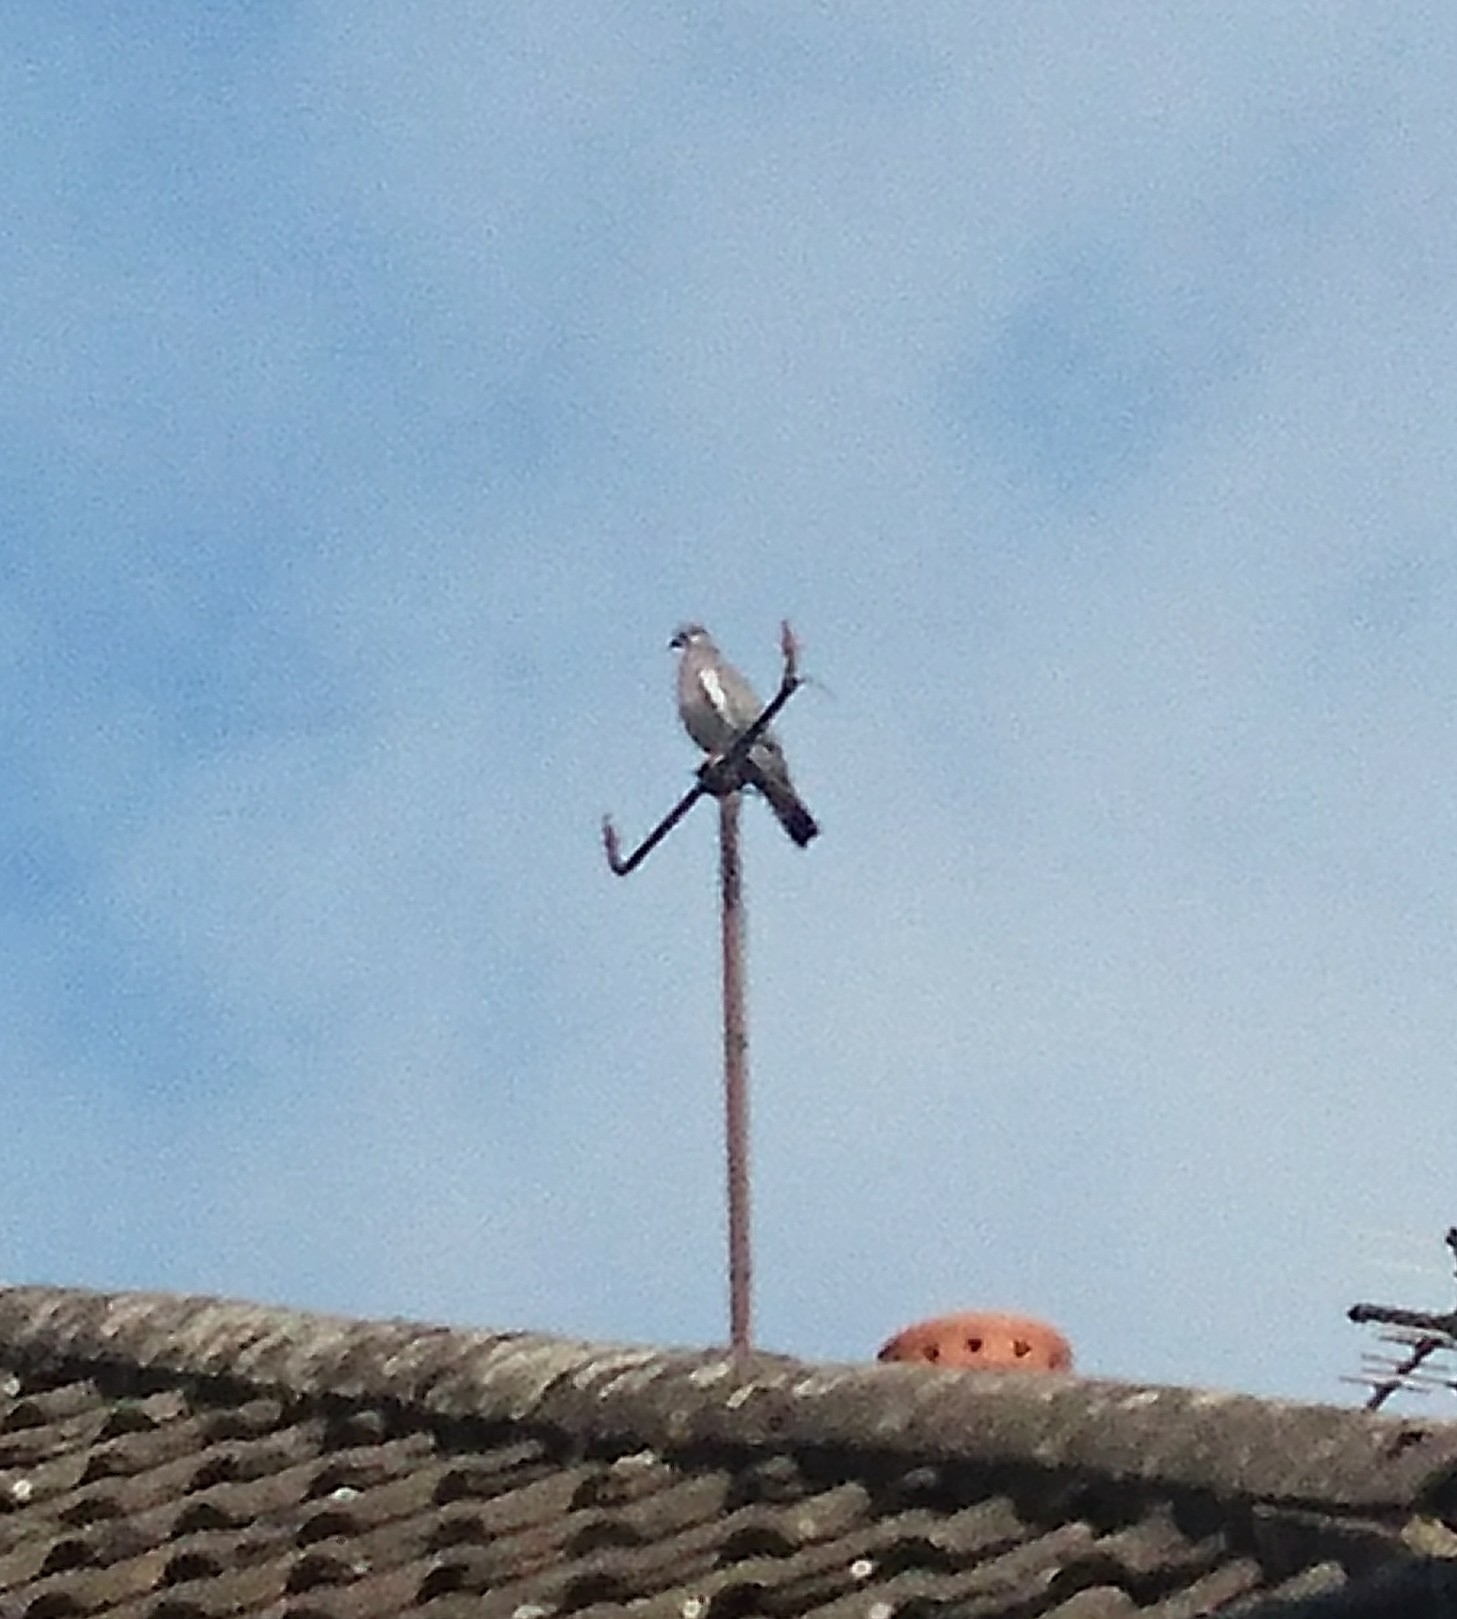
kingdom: Animalia
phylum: Chordata
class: Aves
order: Columbiformes
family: Columbidae
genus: Columba
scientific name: Columba palumbus
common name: Common wood pigeon
